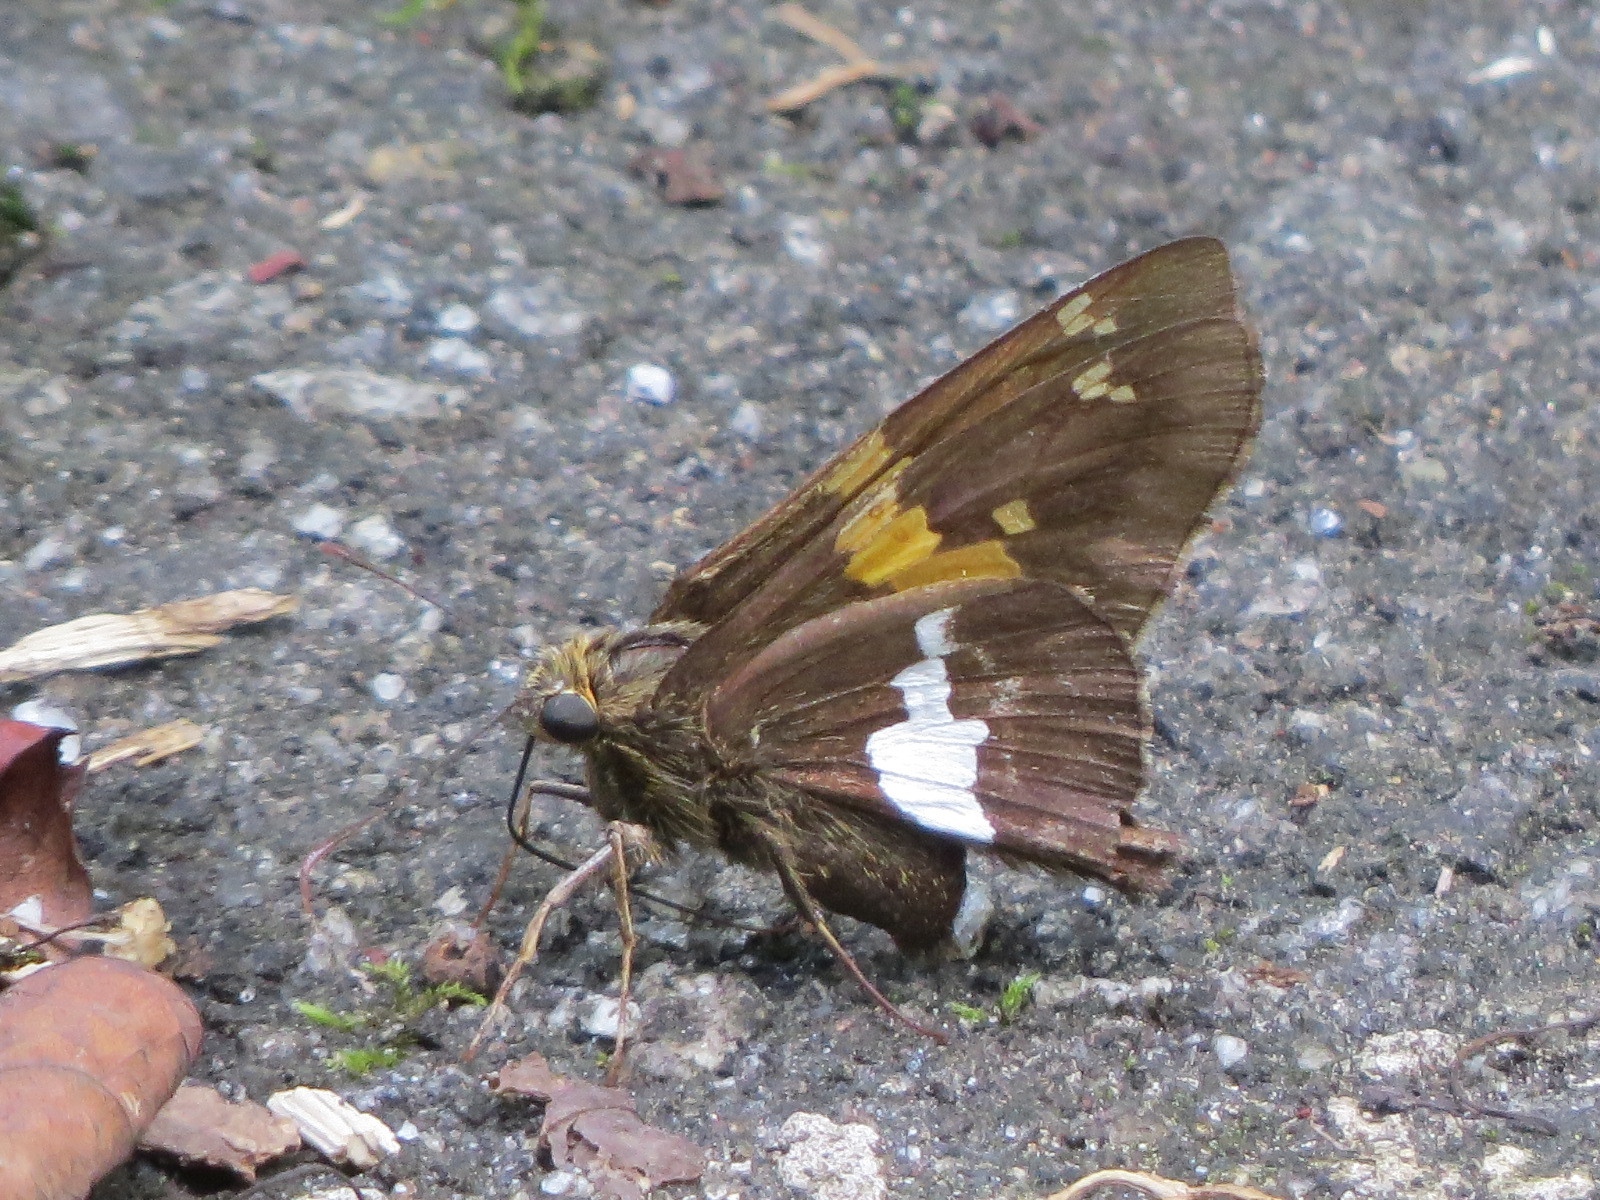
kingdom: Animalia
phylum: Arthropoda
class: Insecta
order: Lepidoptera
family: Hesperiidae
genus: Epargyreus
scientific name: Epargyreus clarus
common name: Silver-spotted skipper
